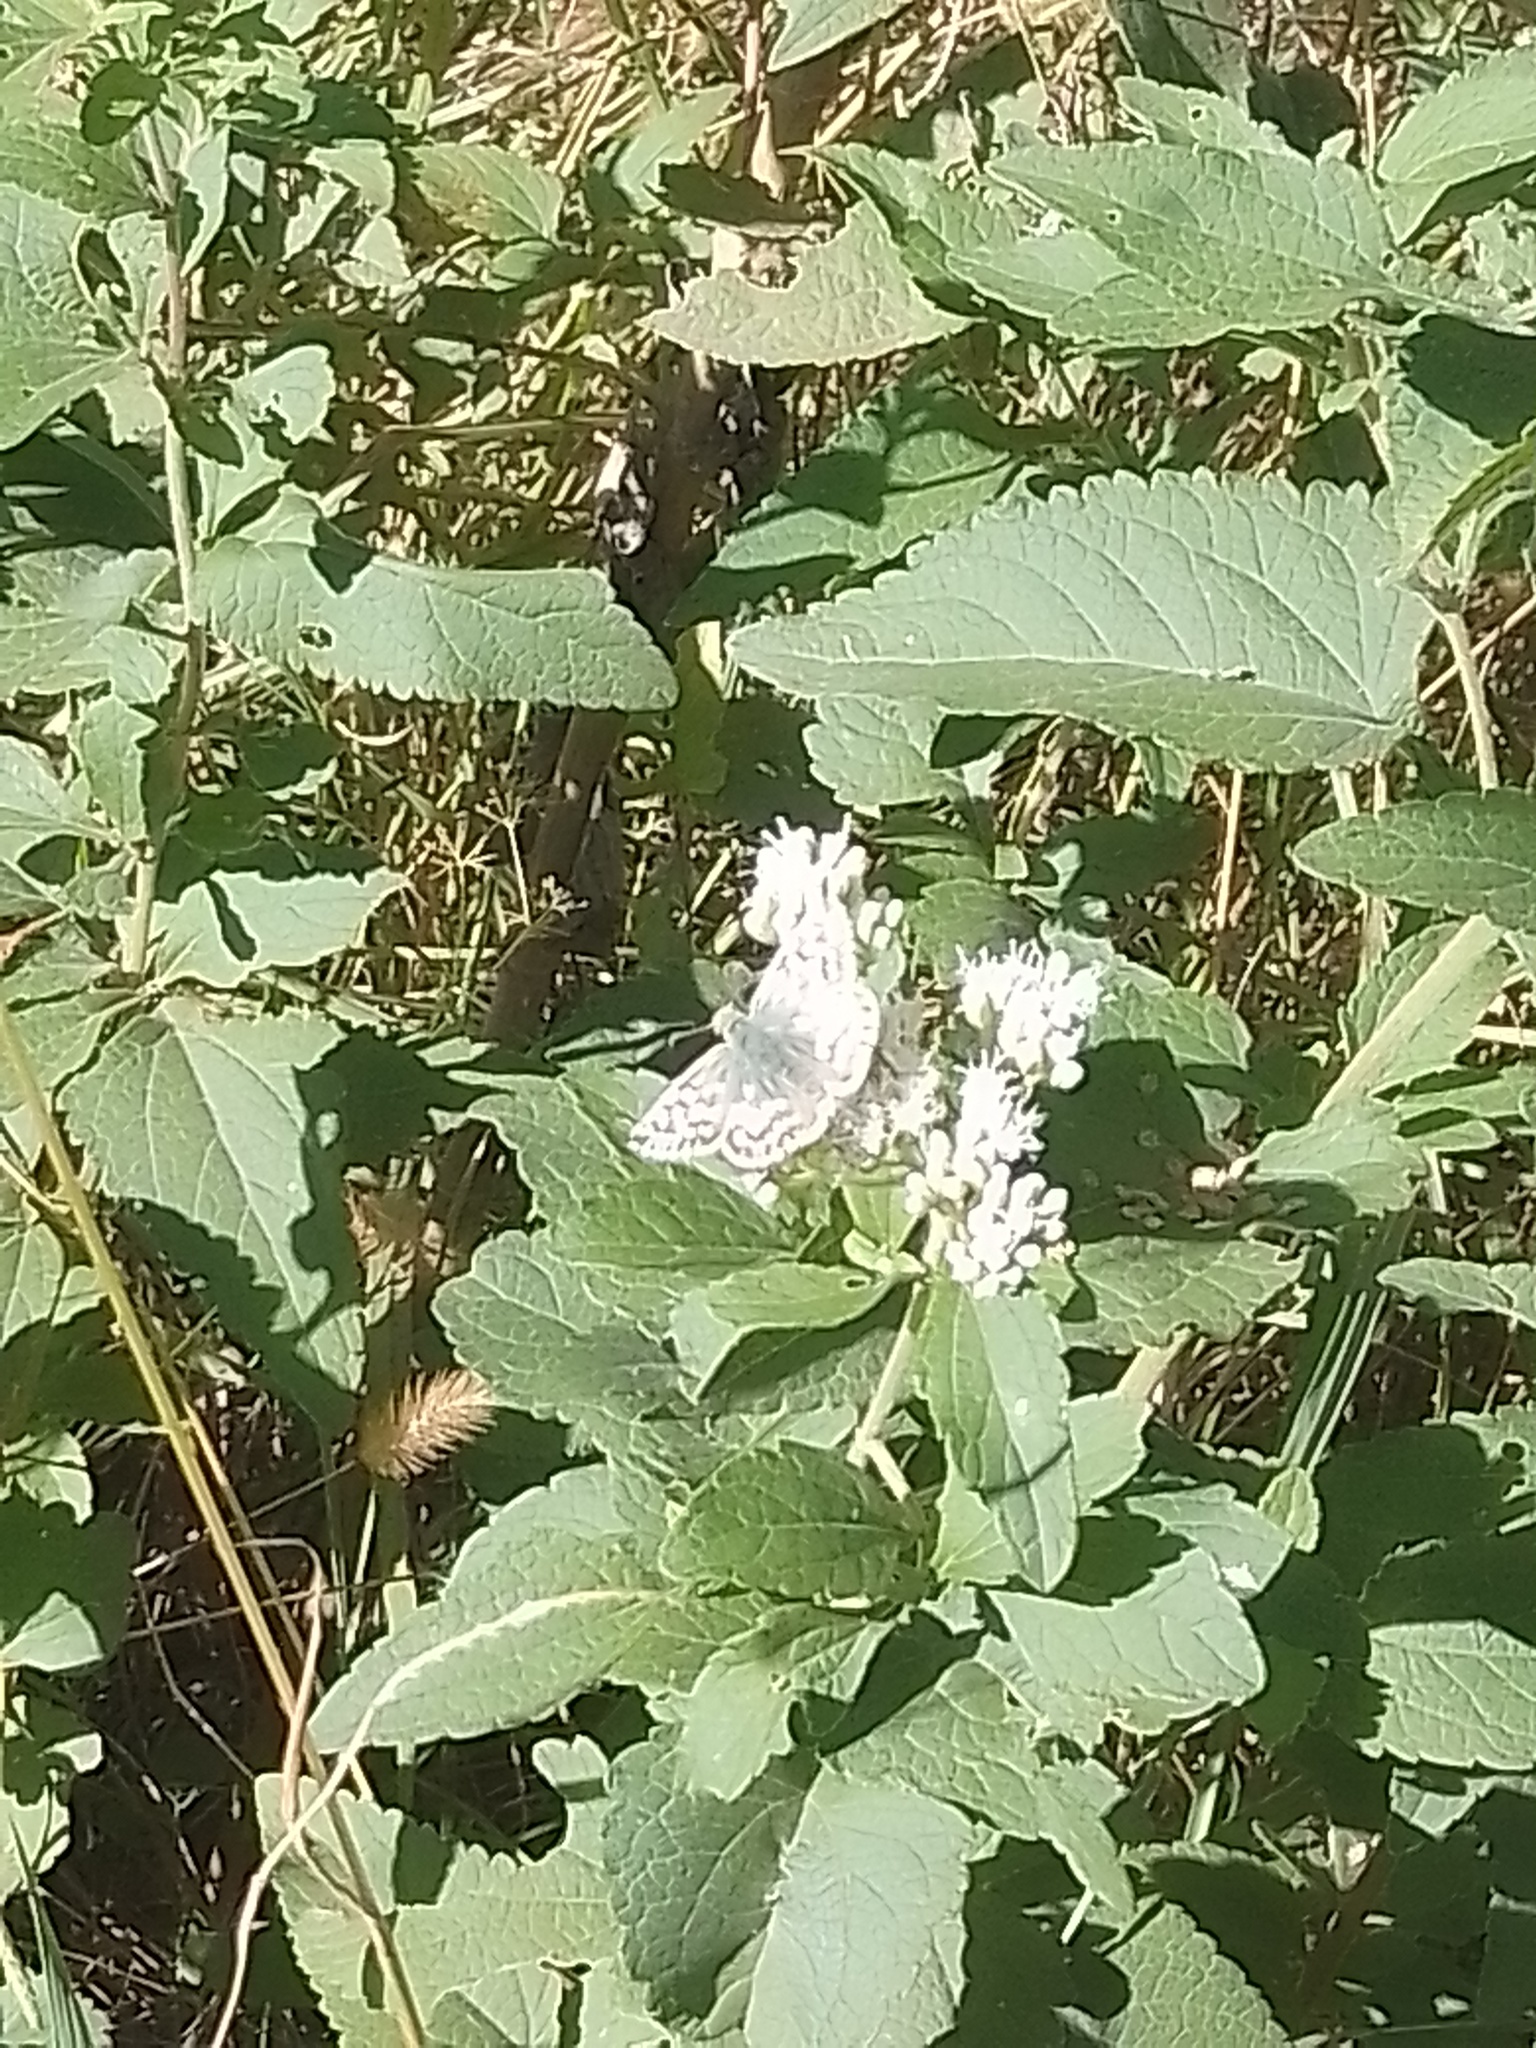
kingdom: Animalia
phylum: Arthropoda
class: Insecta
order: Lepidoptera
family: Hesperiidae
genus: Heliopetes
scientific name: Heliopetes americanus
